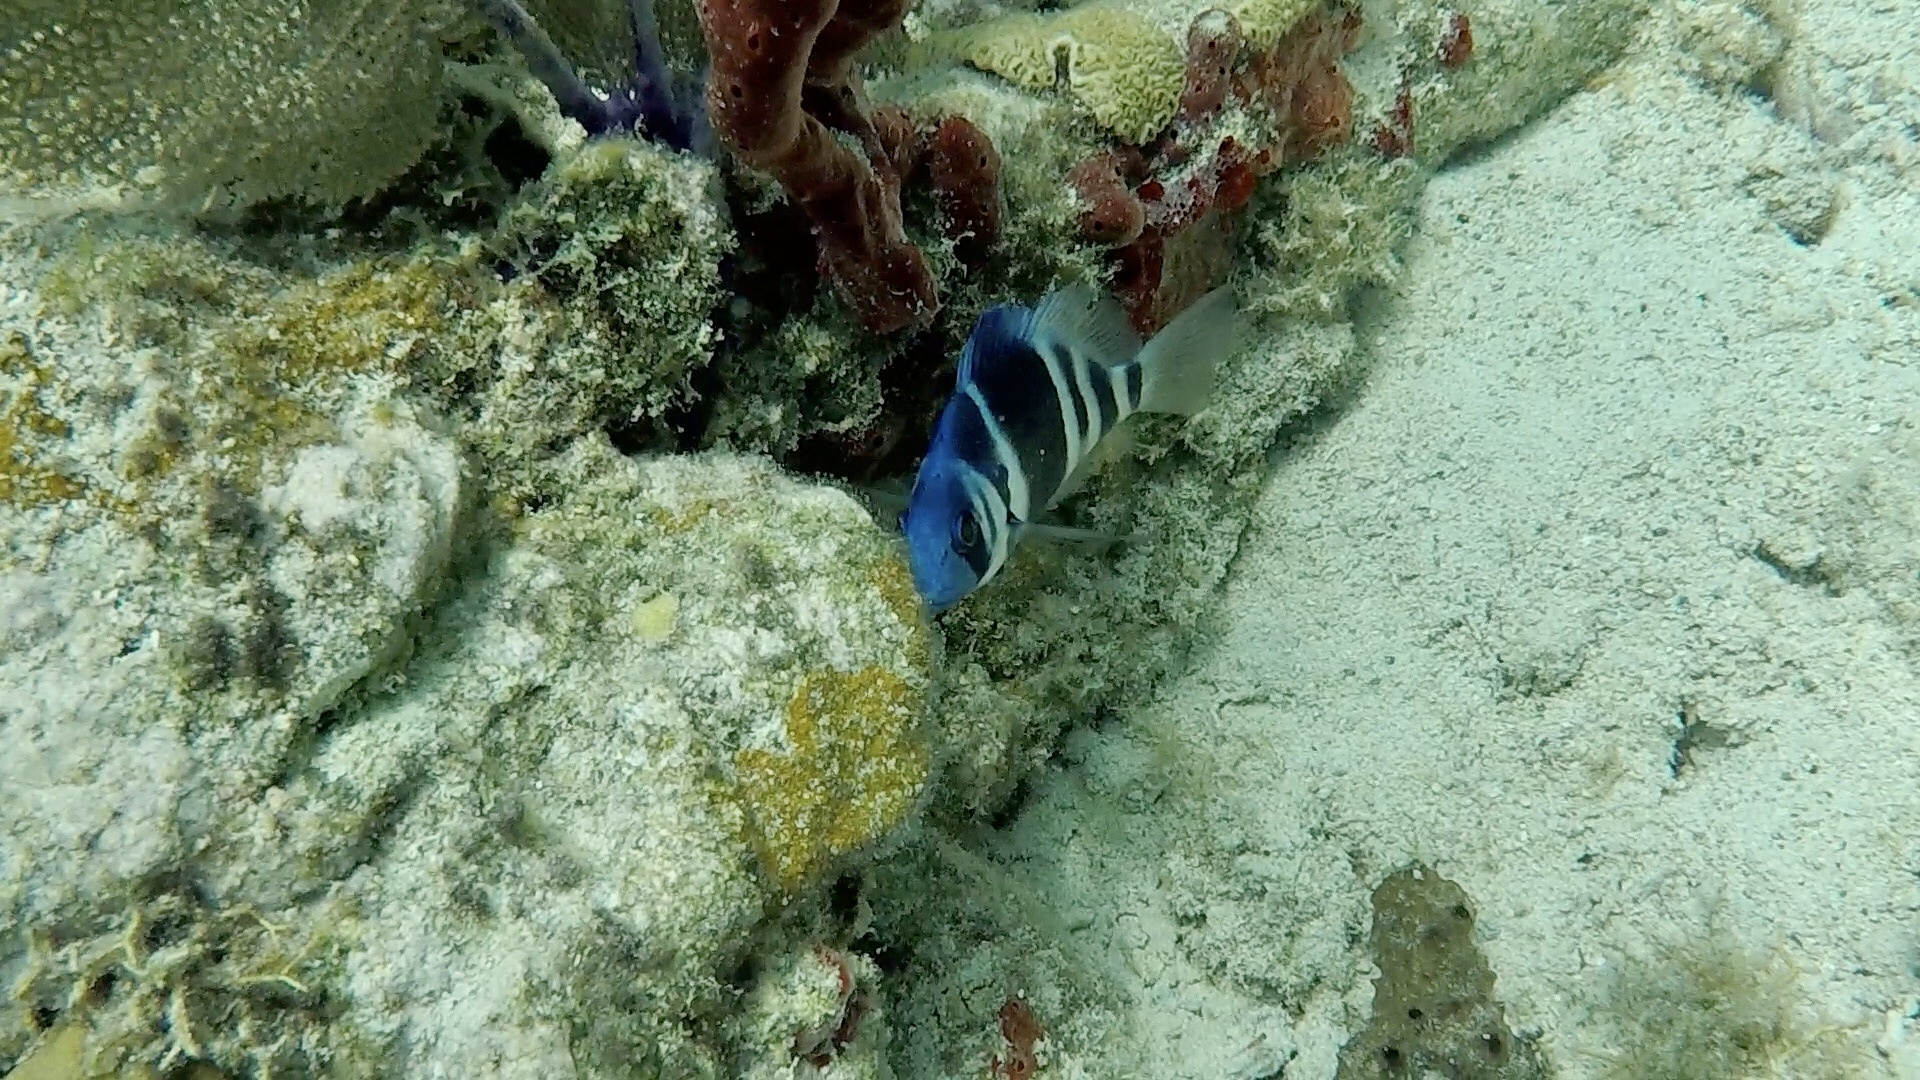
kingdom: Animalia
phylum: Chordata
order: Perciformes
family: Serranidae
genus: Hypoplectrus
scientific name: Hypoplectrus indigo
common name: Indigo hamlet
